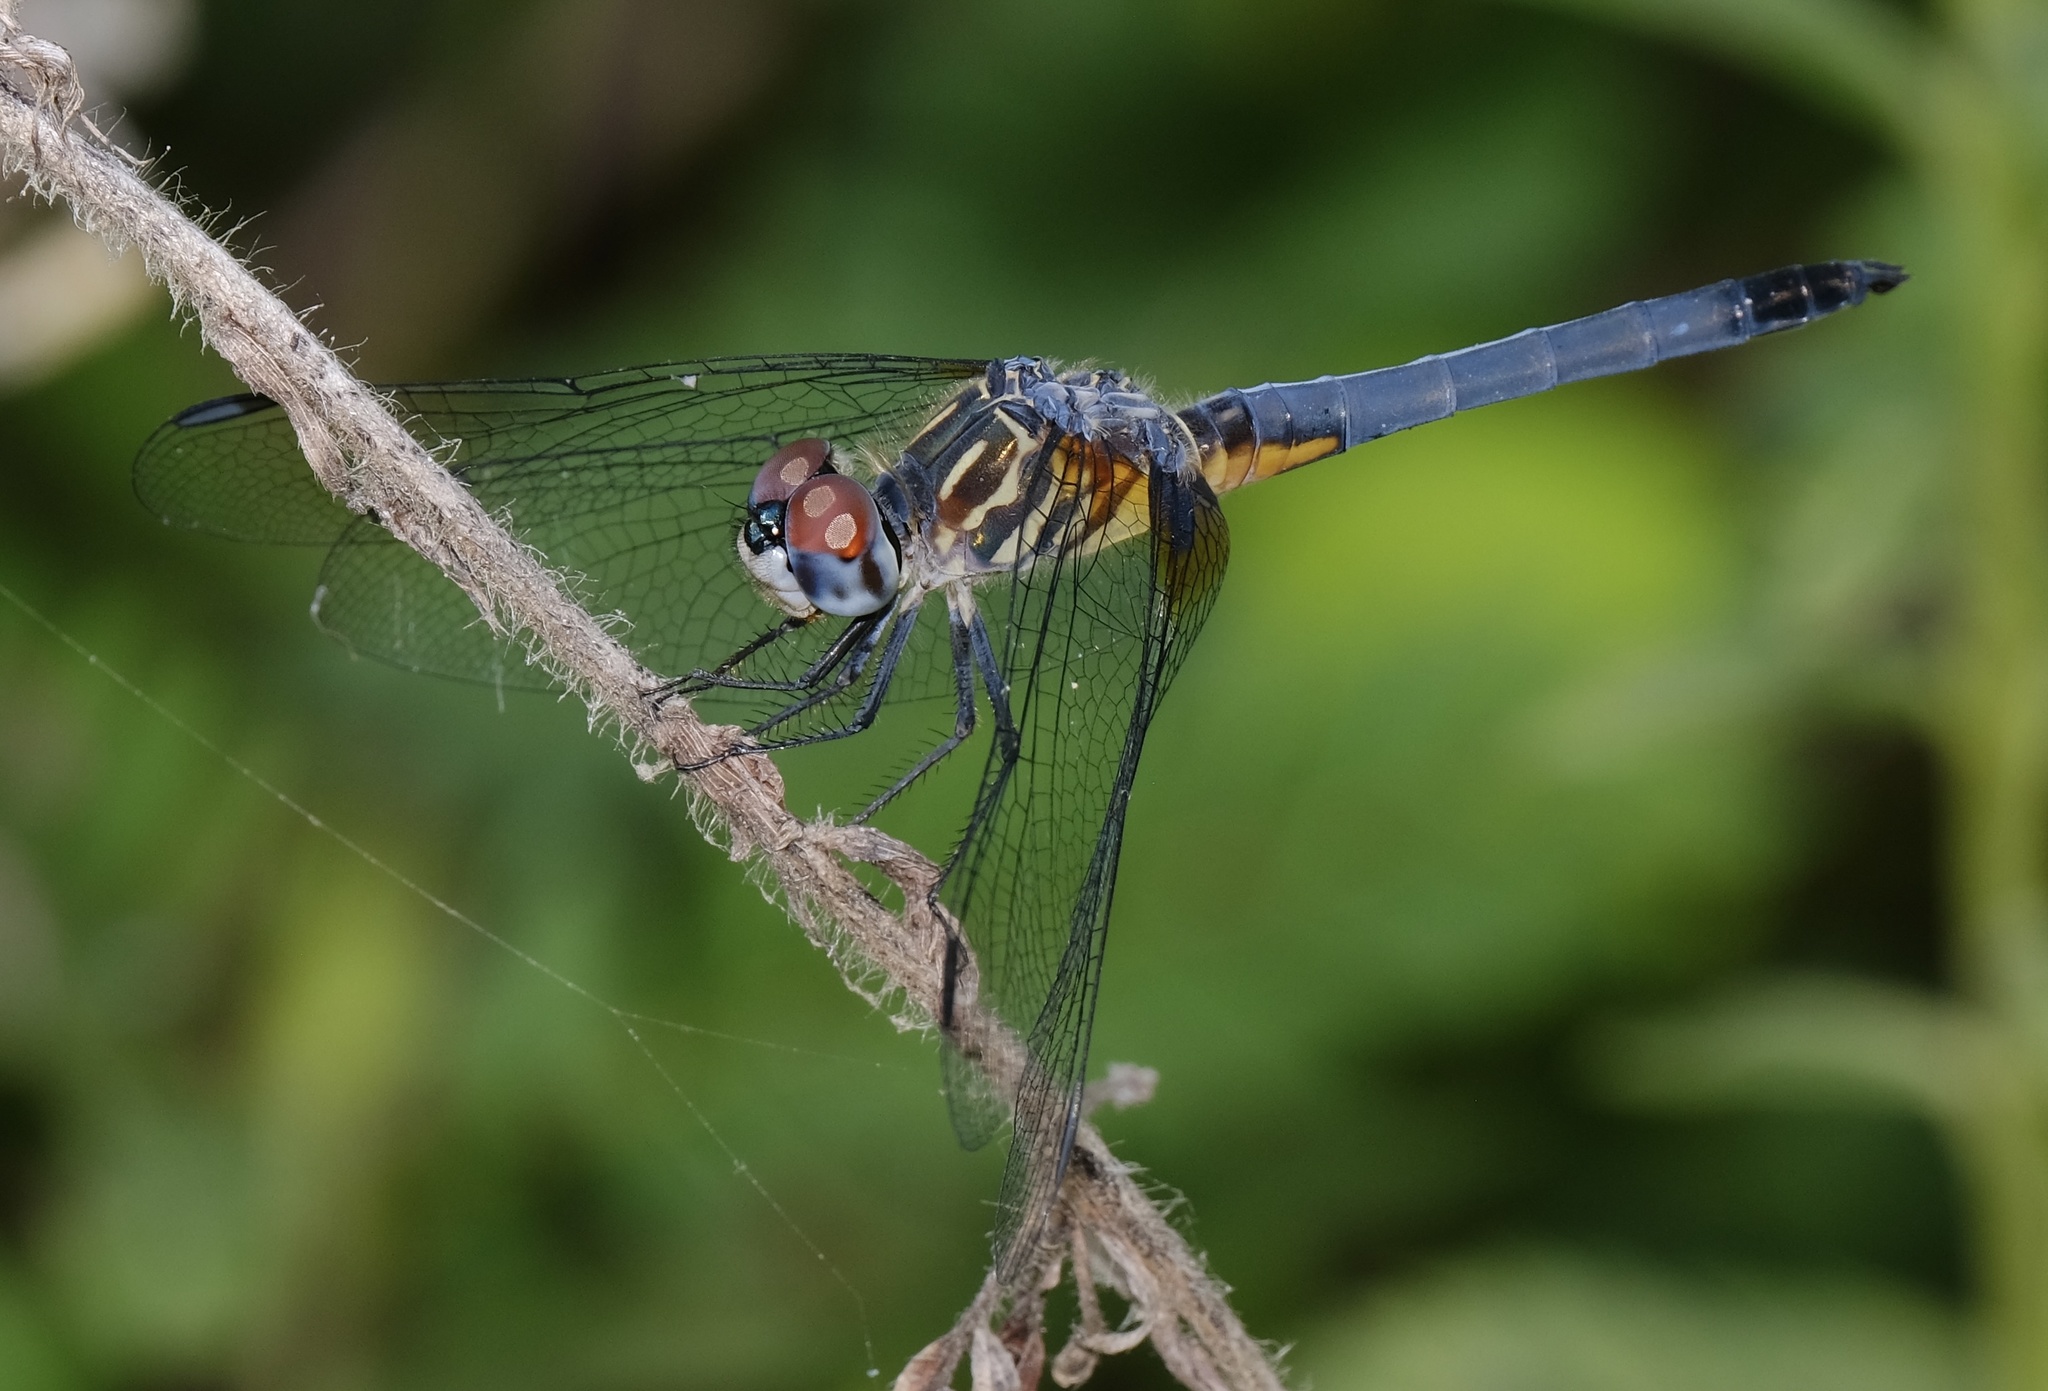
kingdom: Animalia
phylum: Arthropoda
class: Insecta
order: Odonata
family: Libellulidae
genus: Pachydiplax
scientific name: Pachydiplax longipennis
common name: Blue dasher
